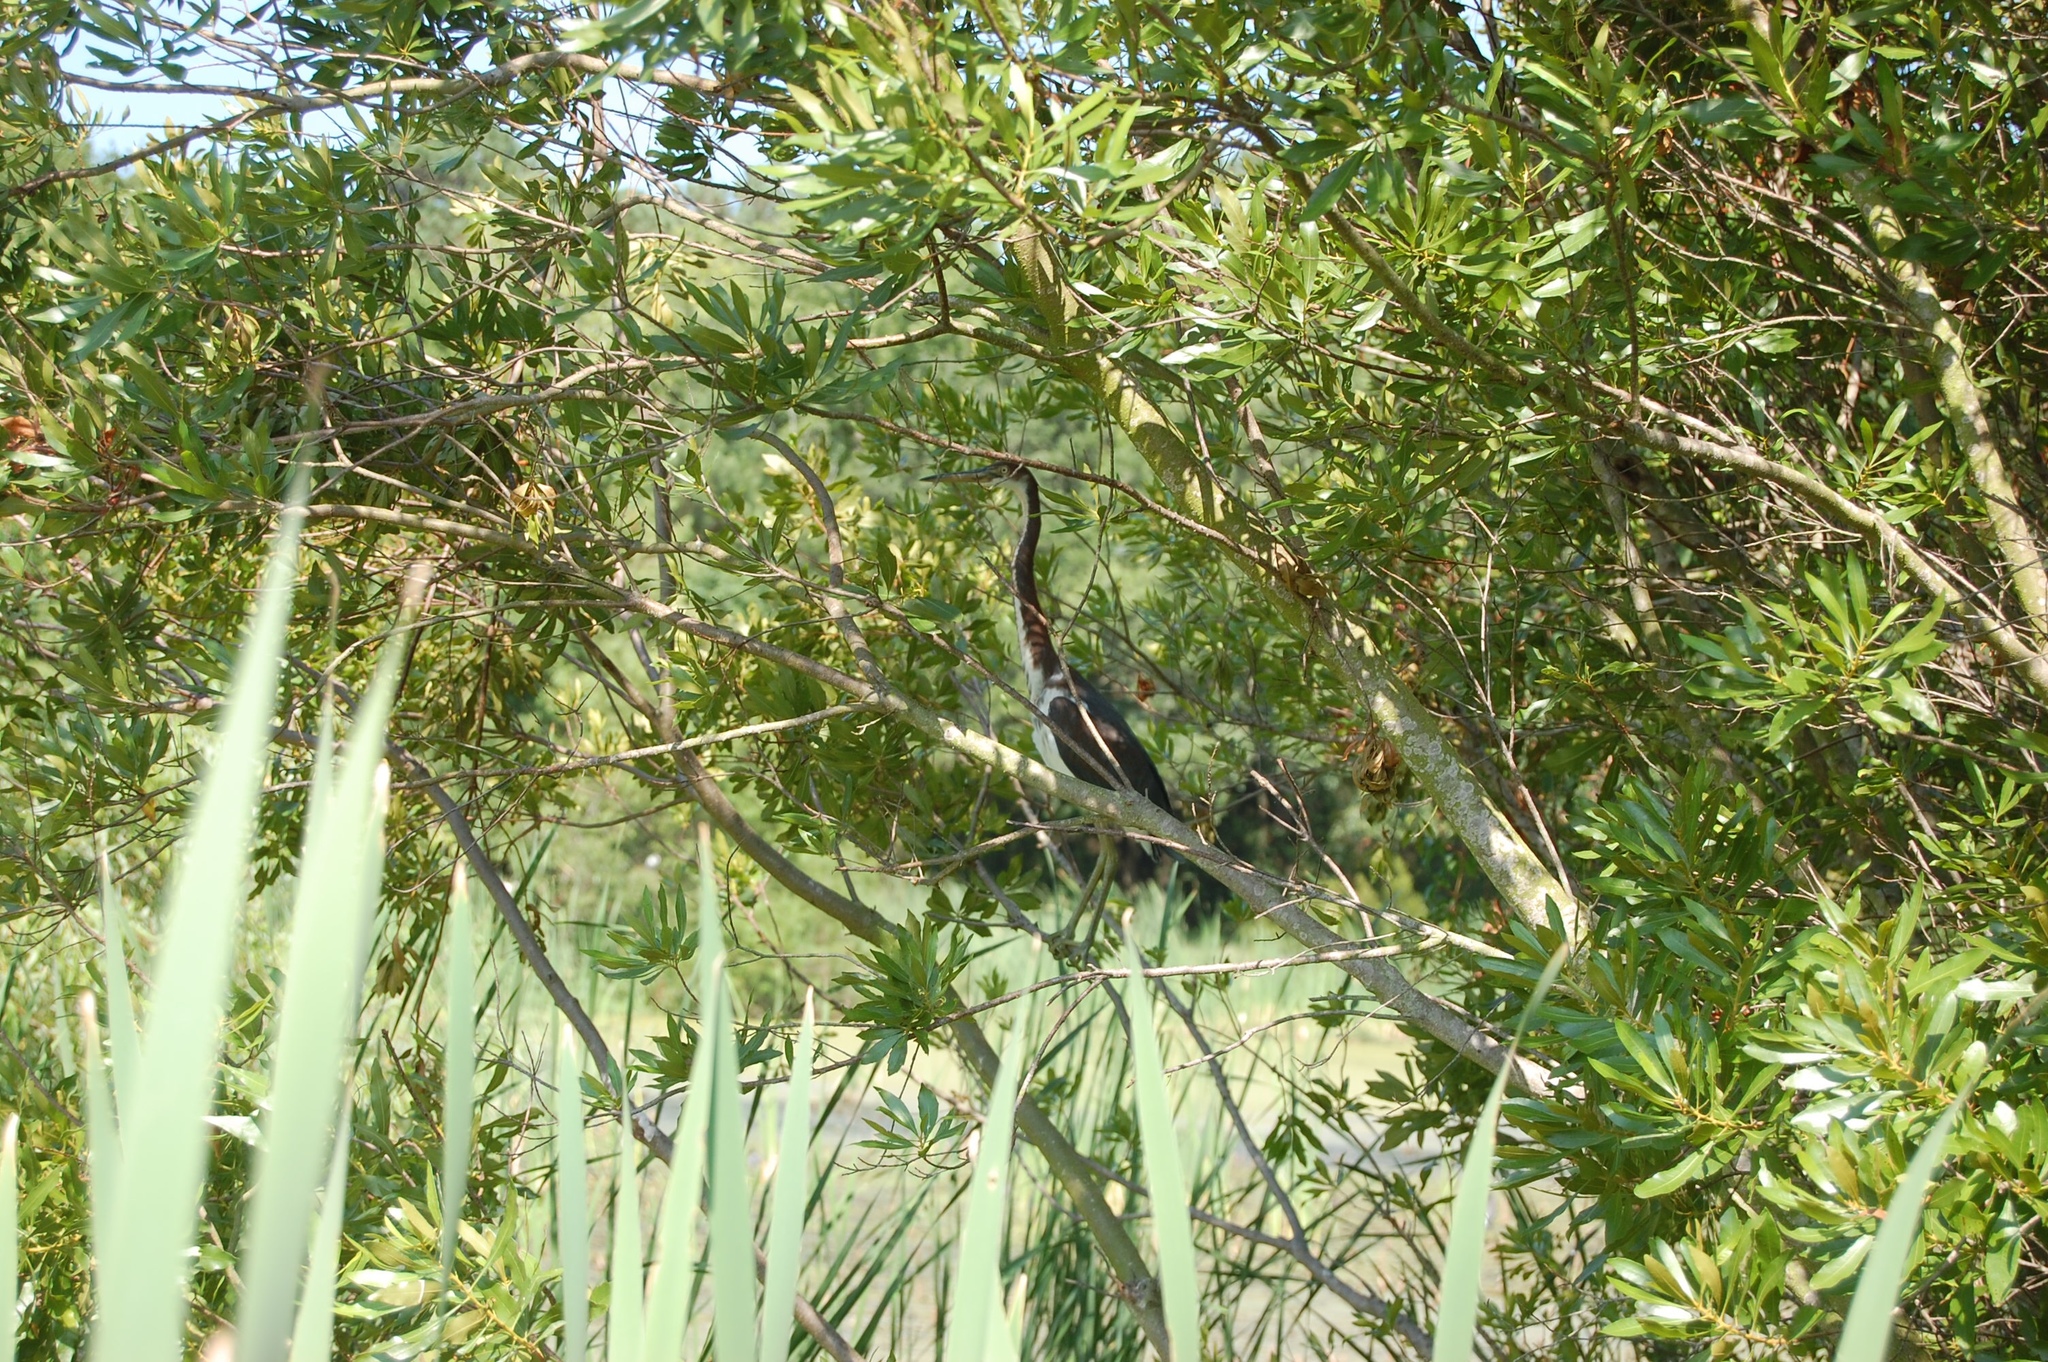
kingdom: Animalia
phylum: Chordata
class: Aves
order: Pelecaniformes
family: Ardeidae
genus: Egretta
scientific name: Egretta tricolor
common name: Tricolored heron
